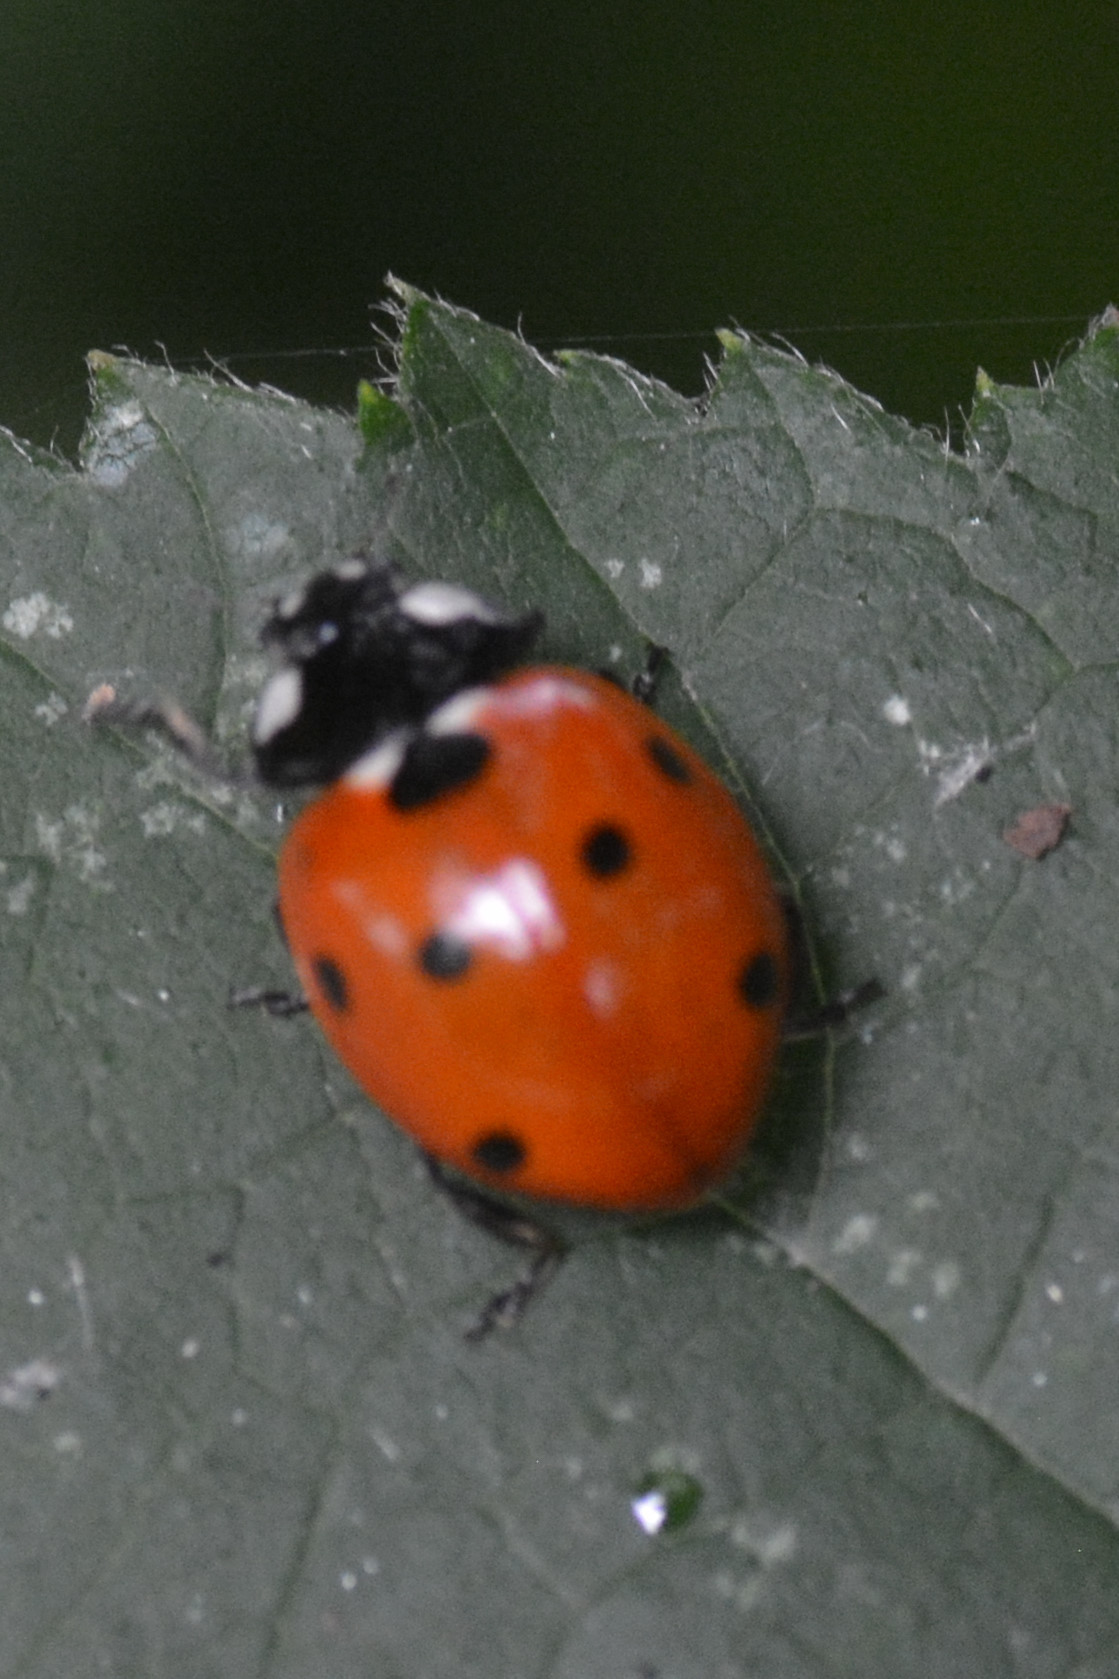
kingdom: Animalia
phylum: Arthropoda
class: Insecta
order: Coleoptera
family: Coccinellidae
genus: Coccinella
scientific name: Coccinella septempunctata
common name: Sevenspotted lady beetle
